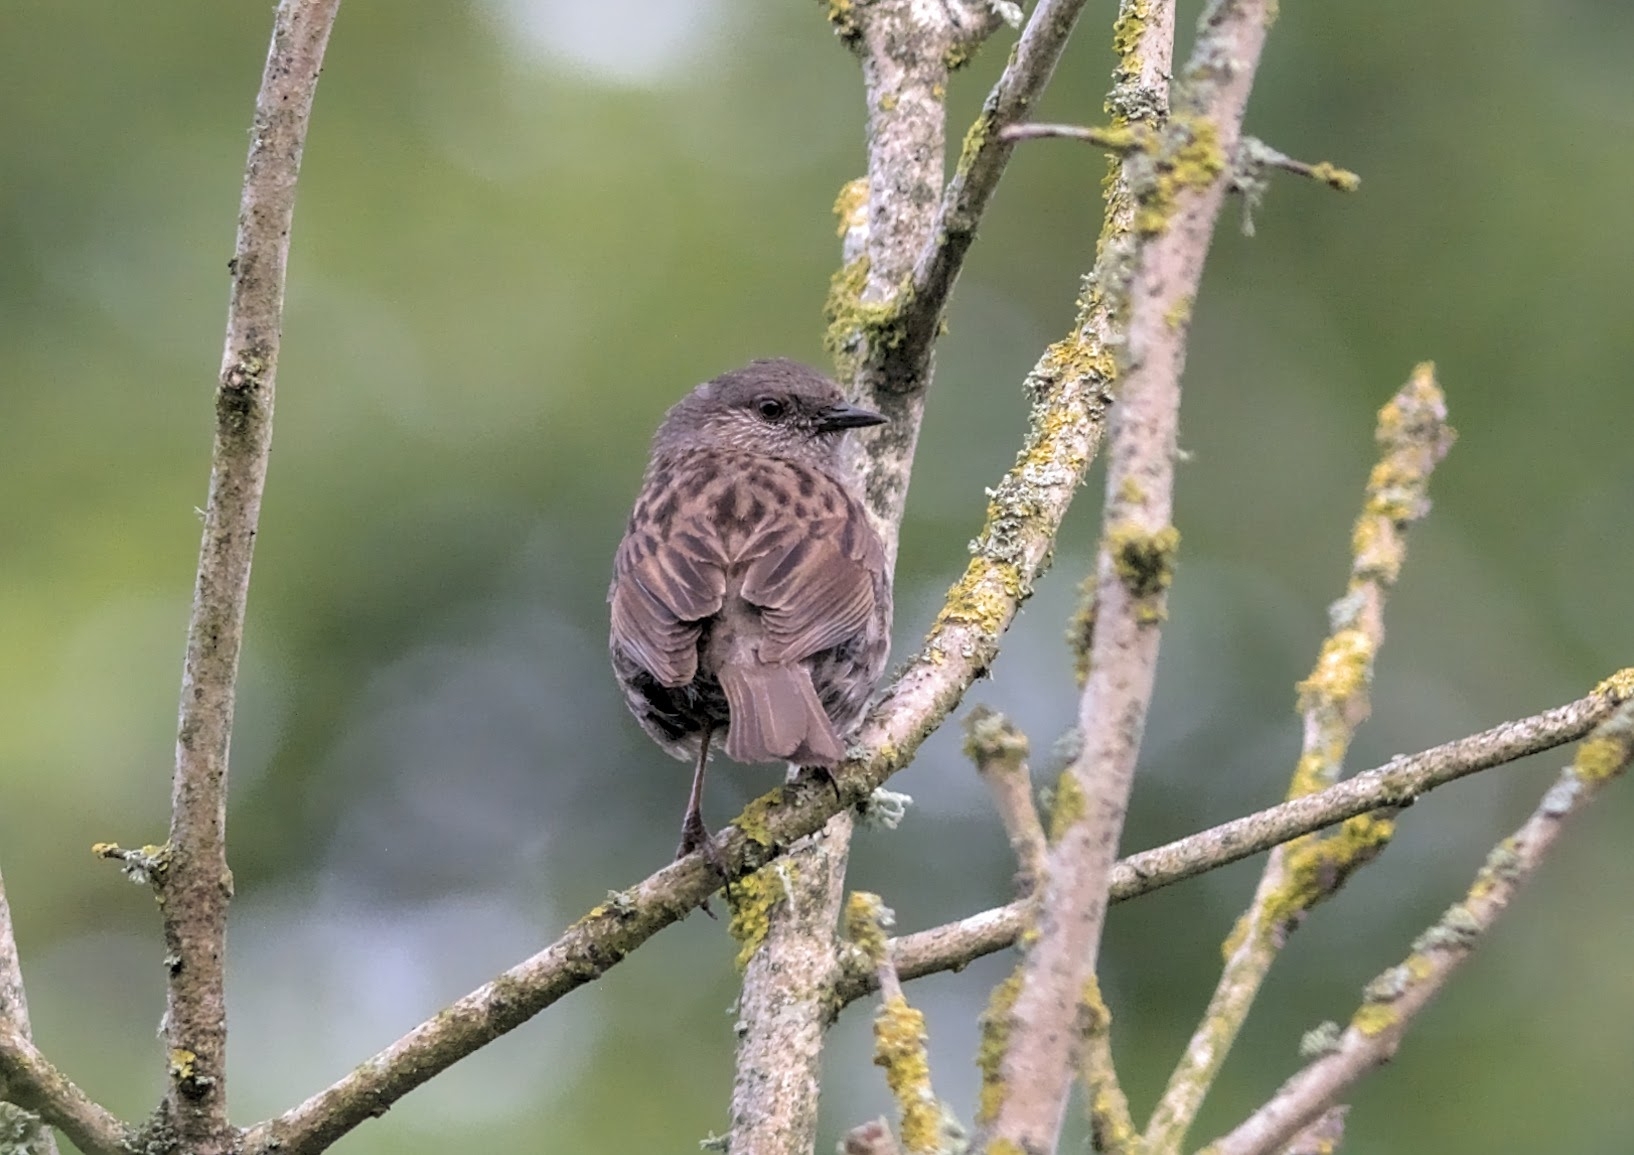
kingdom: Animalia
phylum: Chordata
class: Aves
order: Passeriformes
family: Prunellidae
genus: Prunella
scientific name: Prunella modularis
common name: Dunnock
